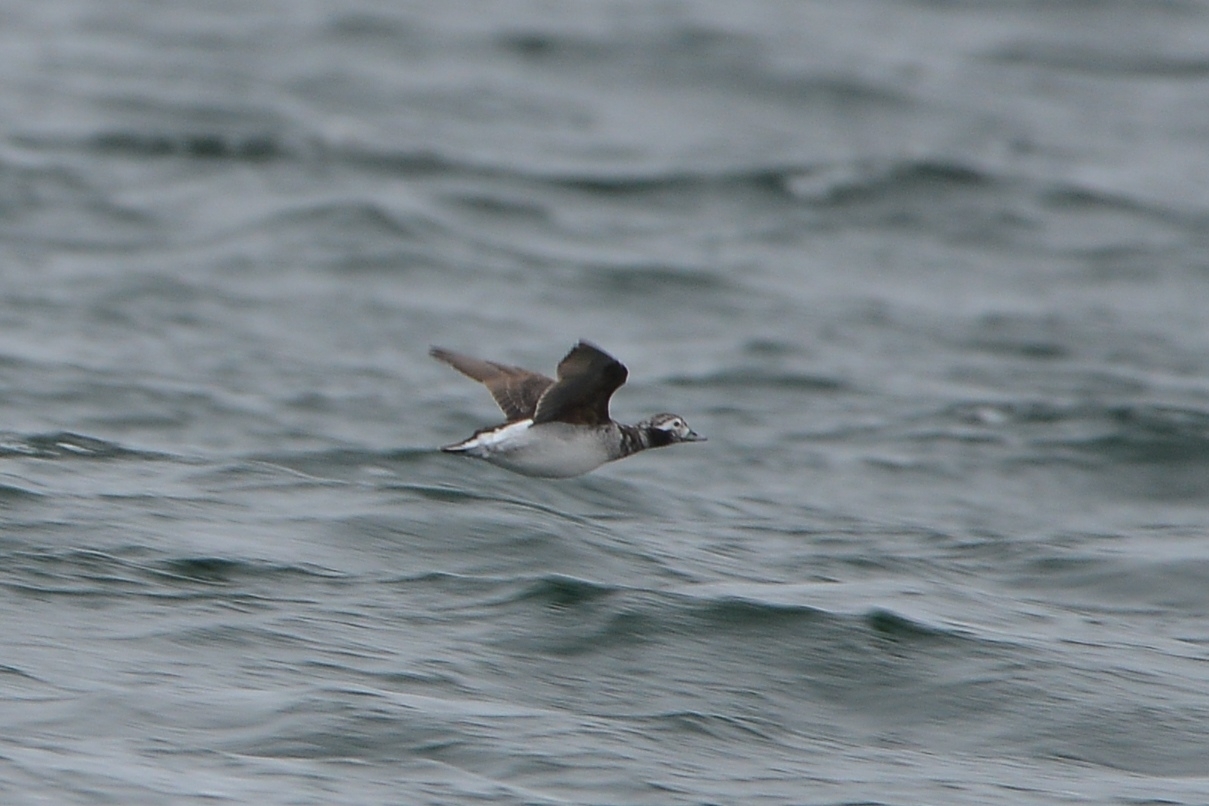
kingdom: Animalia
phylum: Chordata
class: Aves
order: Anseriformes
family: Anatidae
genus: Clangula
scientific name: Clangula hyemalis
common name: Long-tailed duck
